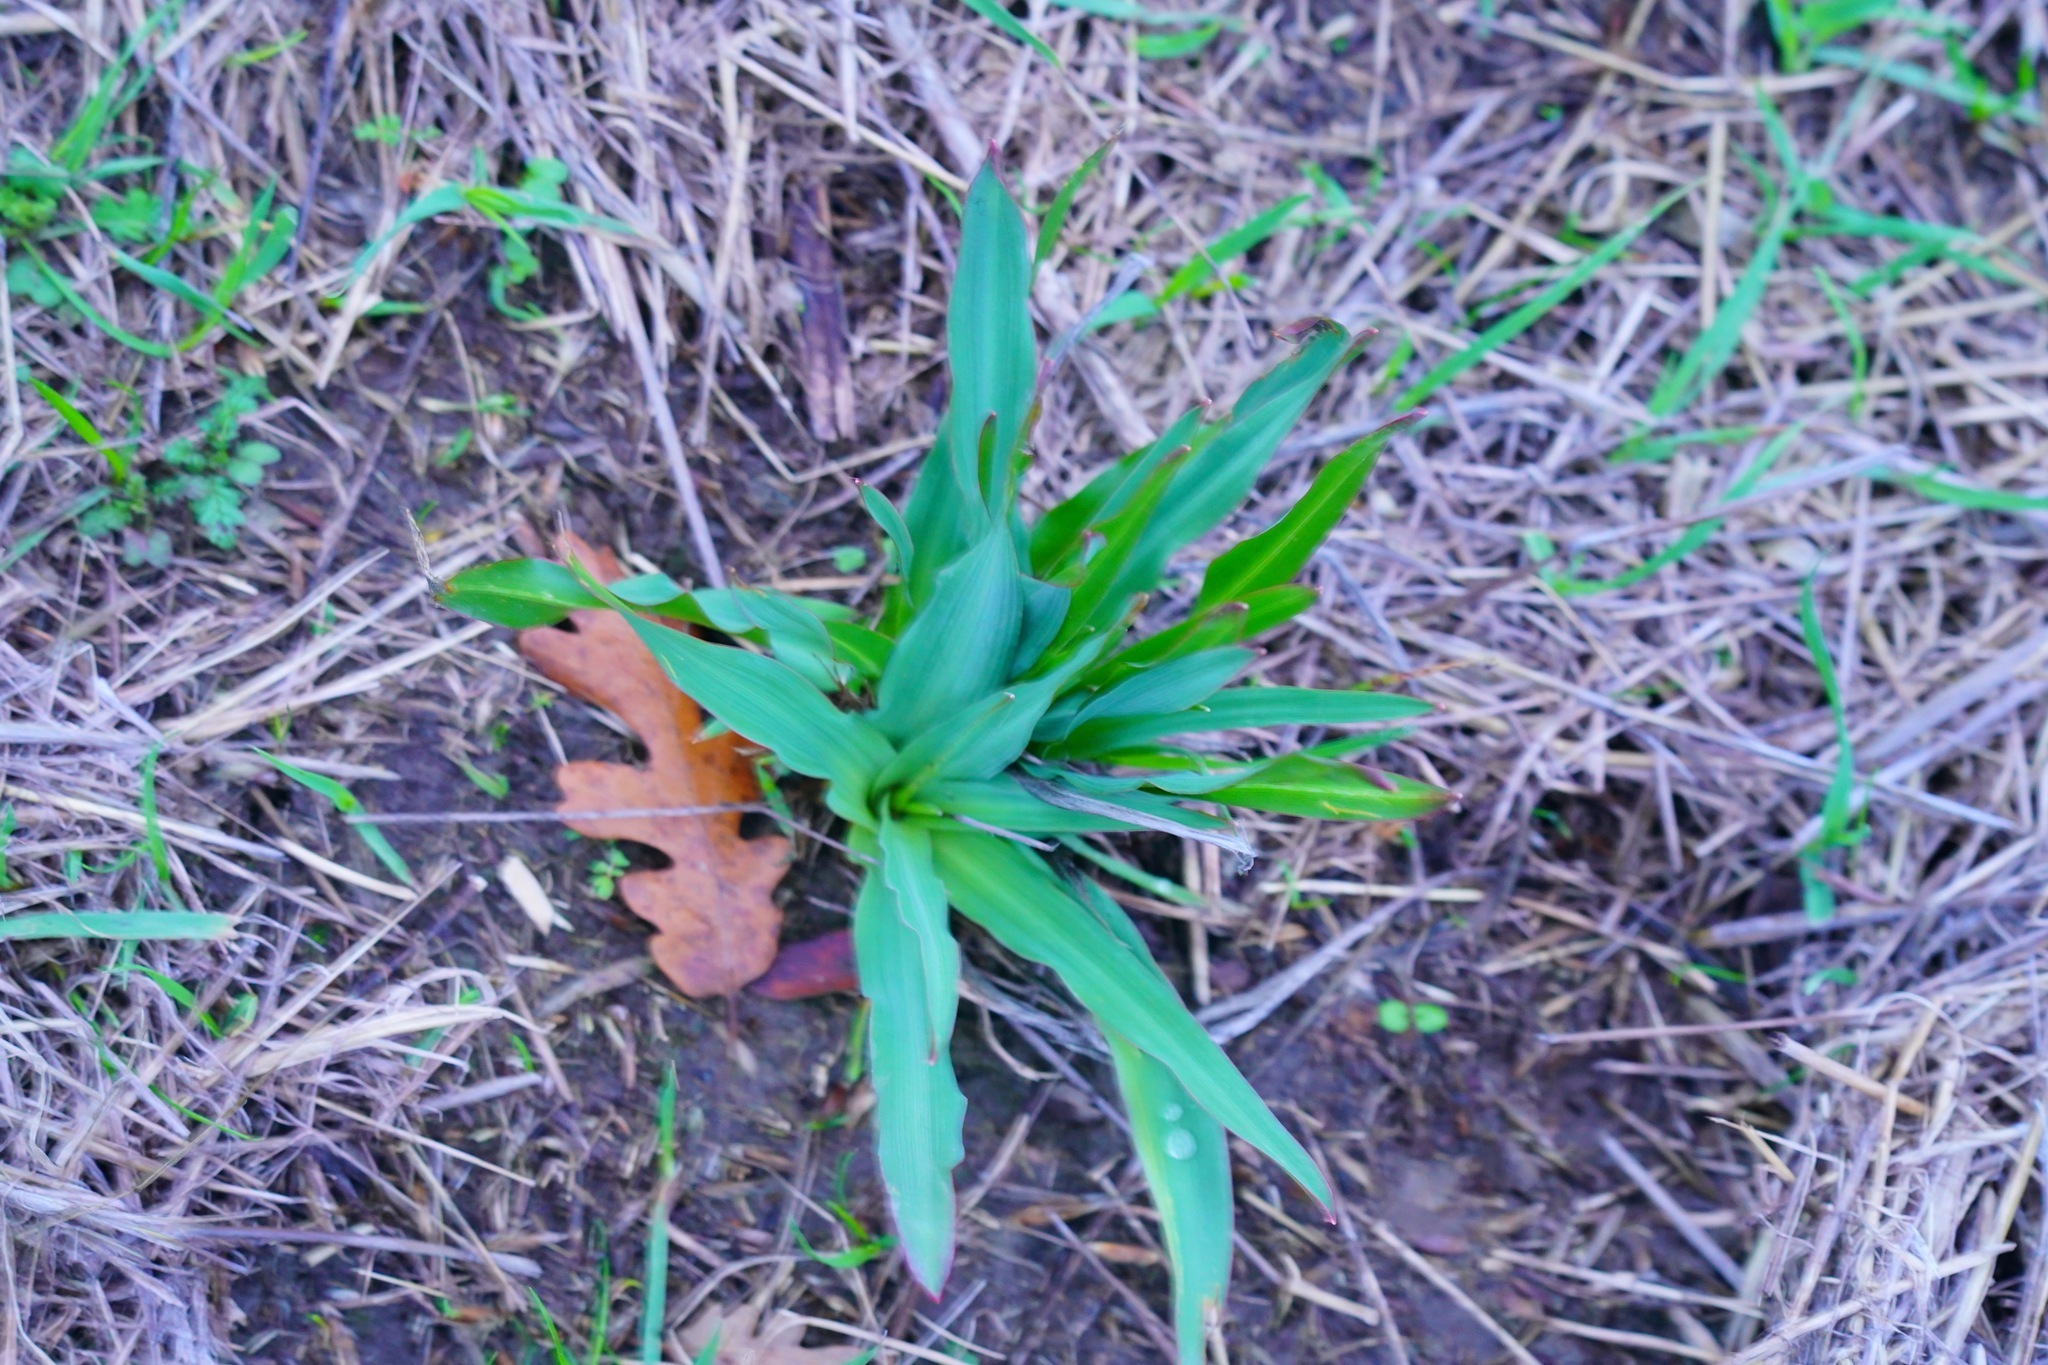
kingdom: Plantae
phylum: Tracheophyta
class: Liliopsida
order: Asparagales
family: Asparagaceae
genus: Chlorogalum
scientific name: Chlorogalum pomeridianum
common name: Amole
